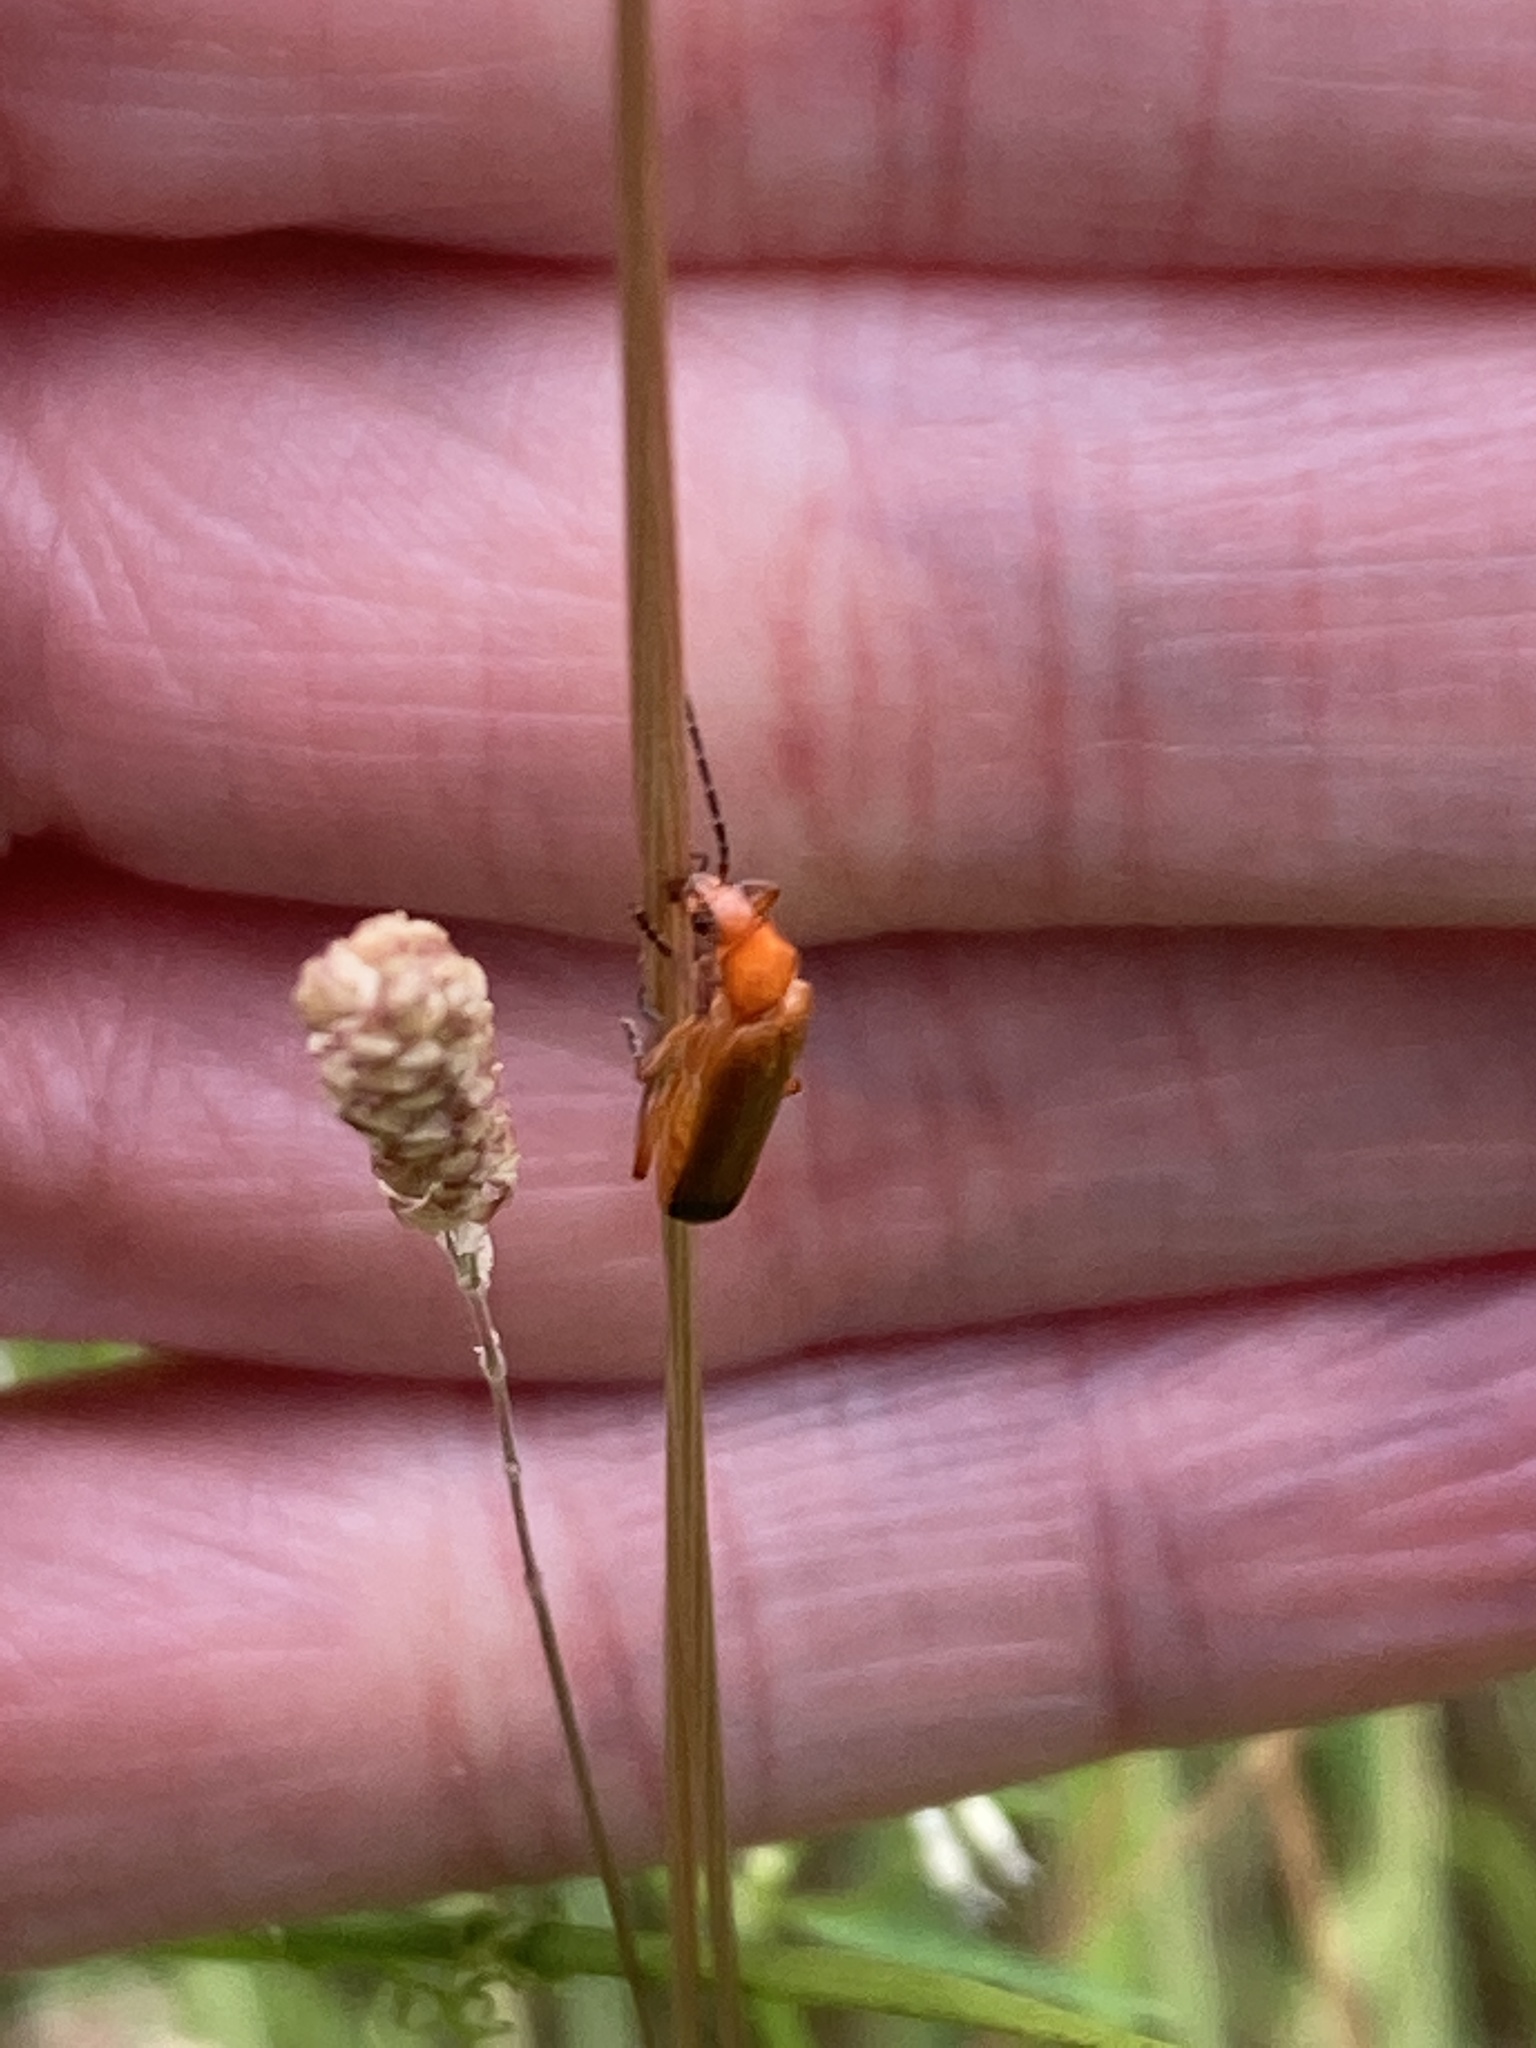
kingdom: Animalia
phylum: Arthropoda
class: Insecta
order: Coleoptera
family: Cantharidae
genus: Rhagonycha
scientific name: Rhagonycha fulva
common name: Common red soldier beetle
